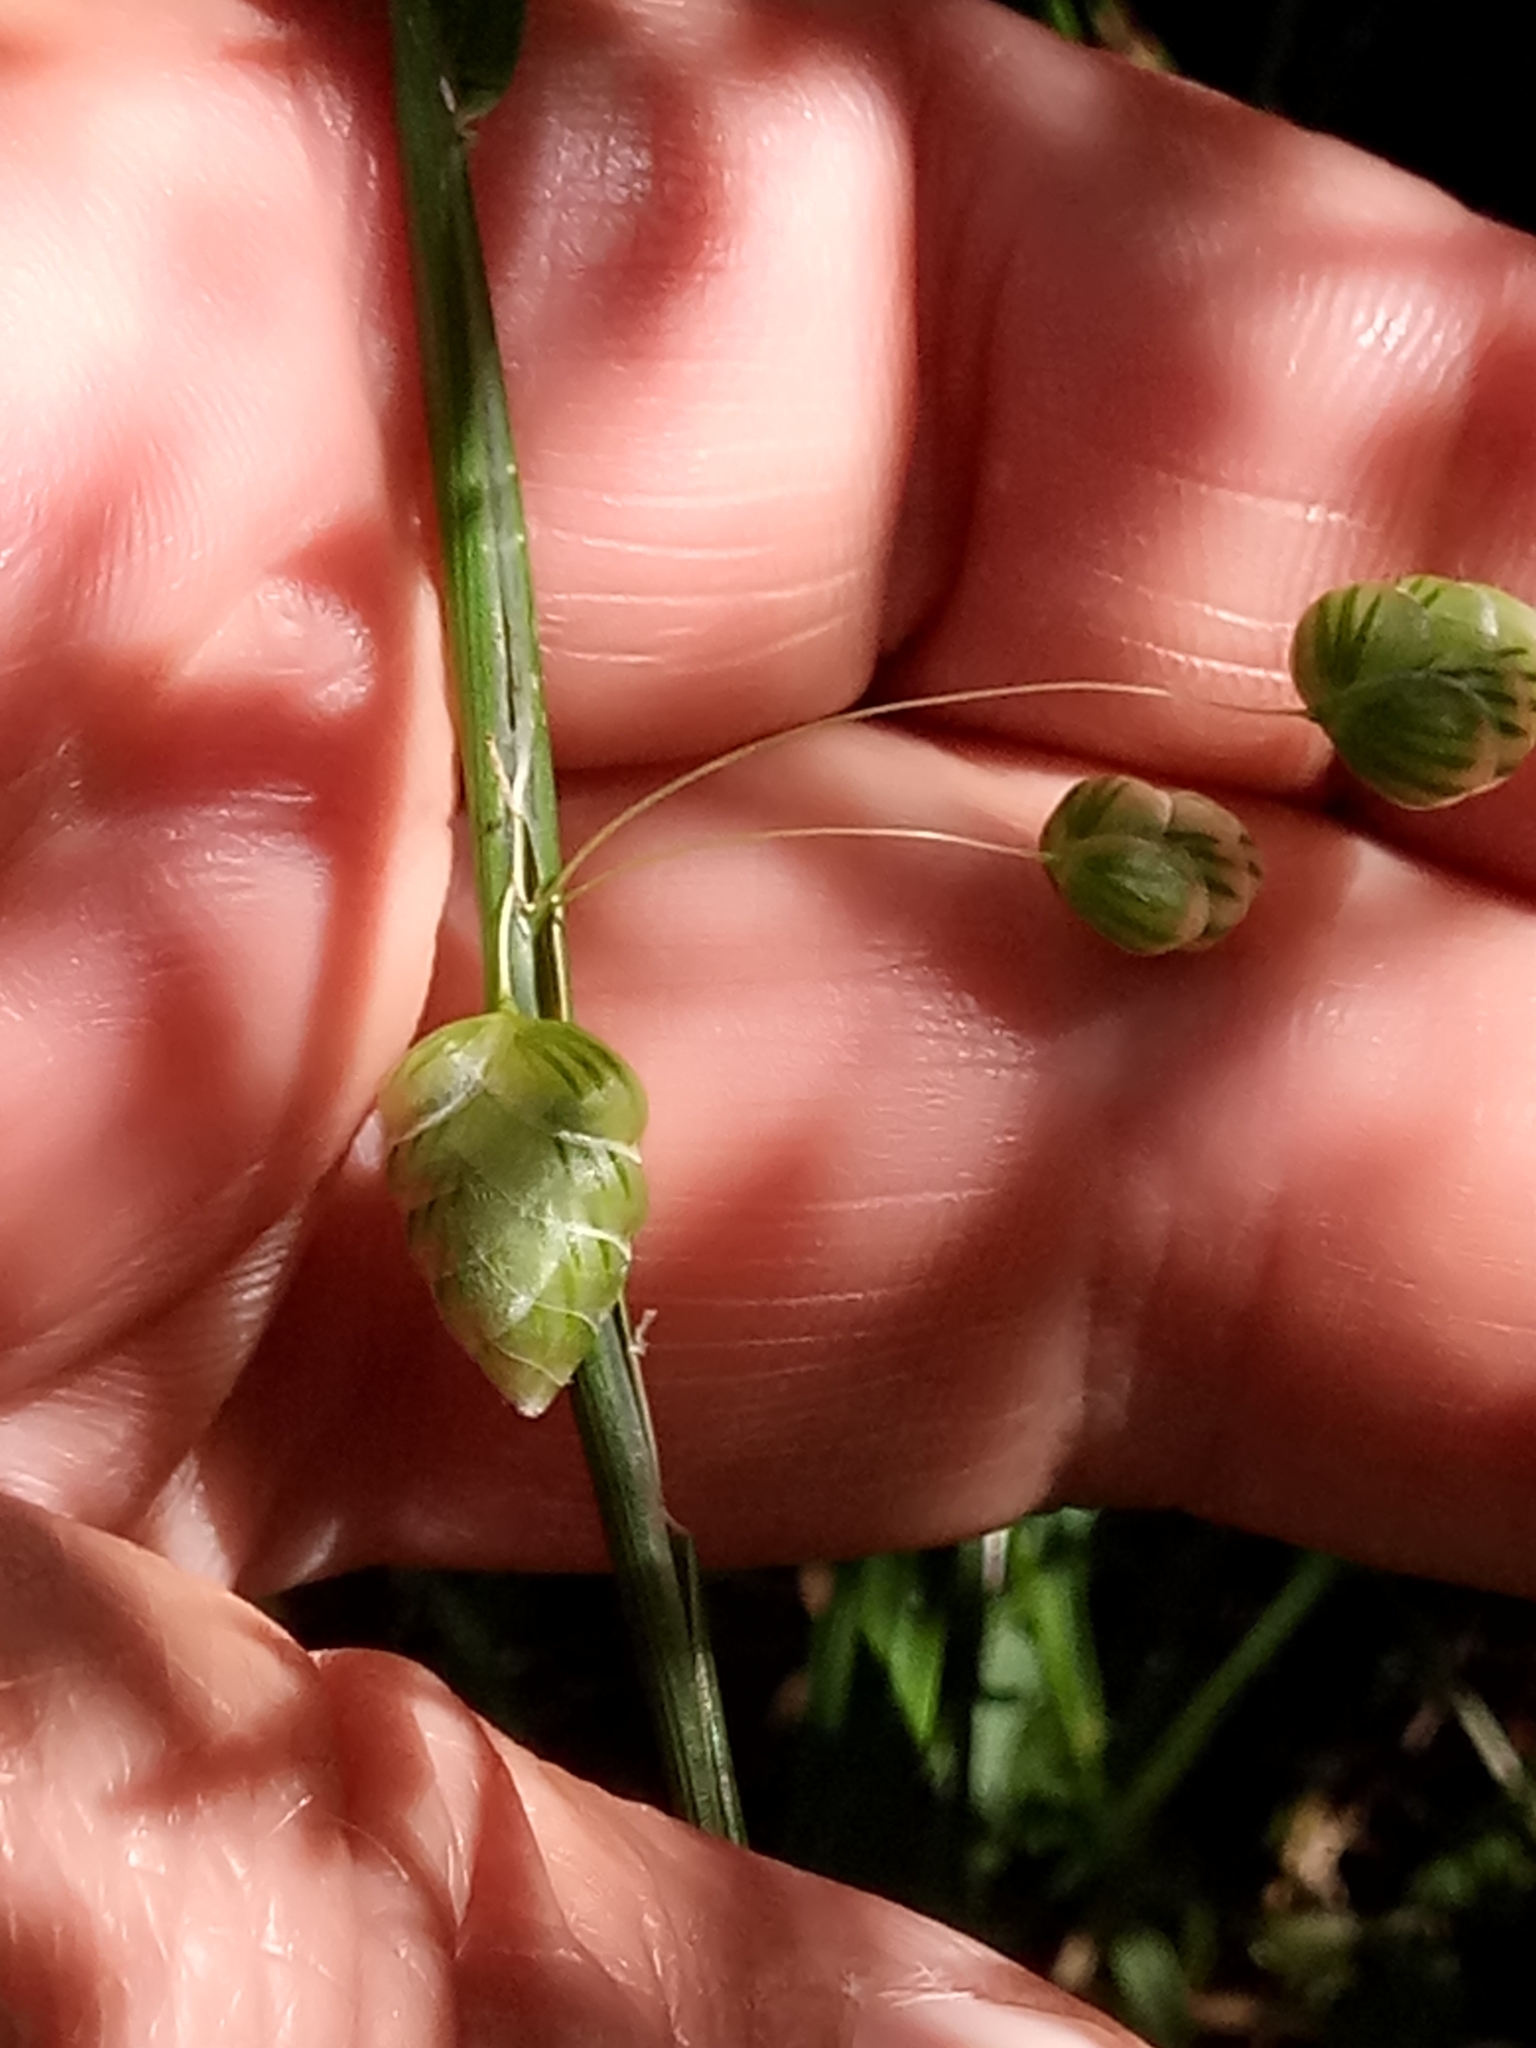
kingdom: Plantae
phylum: Tracheophyta
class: Liliopsida
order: Poales
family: Poaceae
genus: Briza
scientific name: Briza maxima
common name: Big quakinggrass
